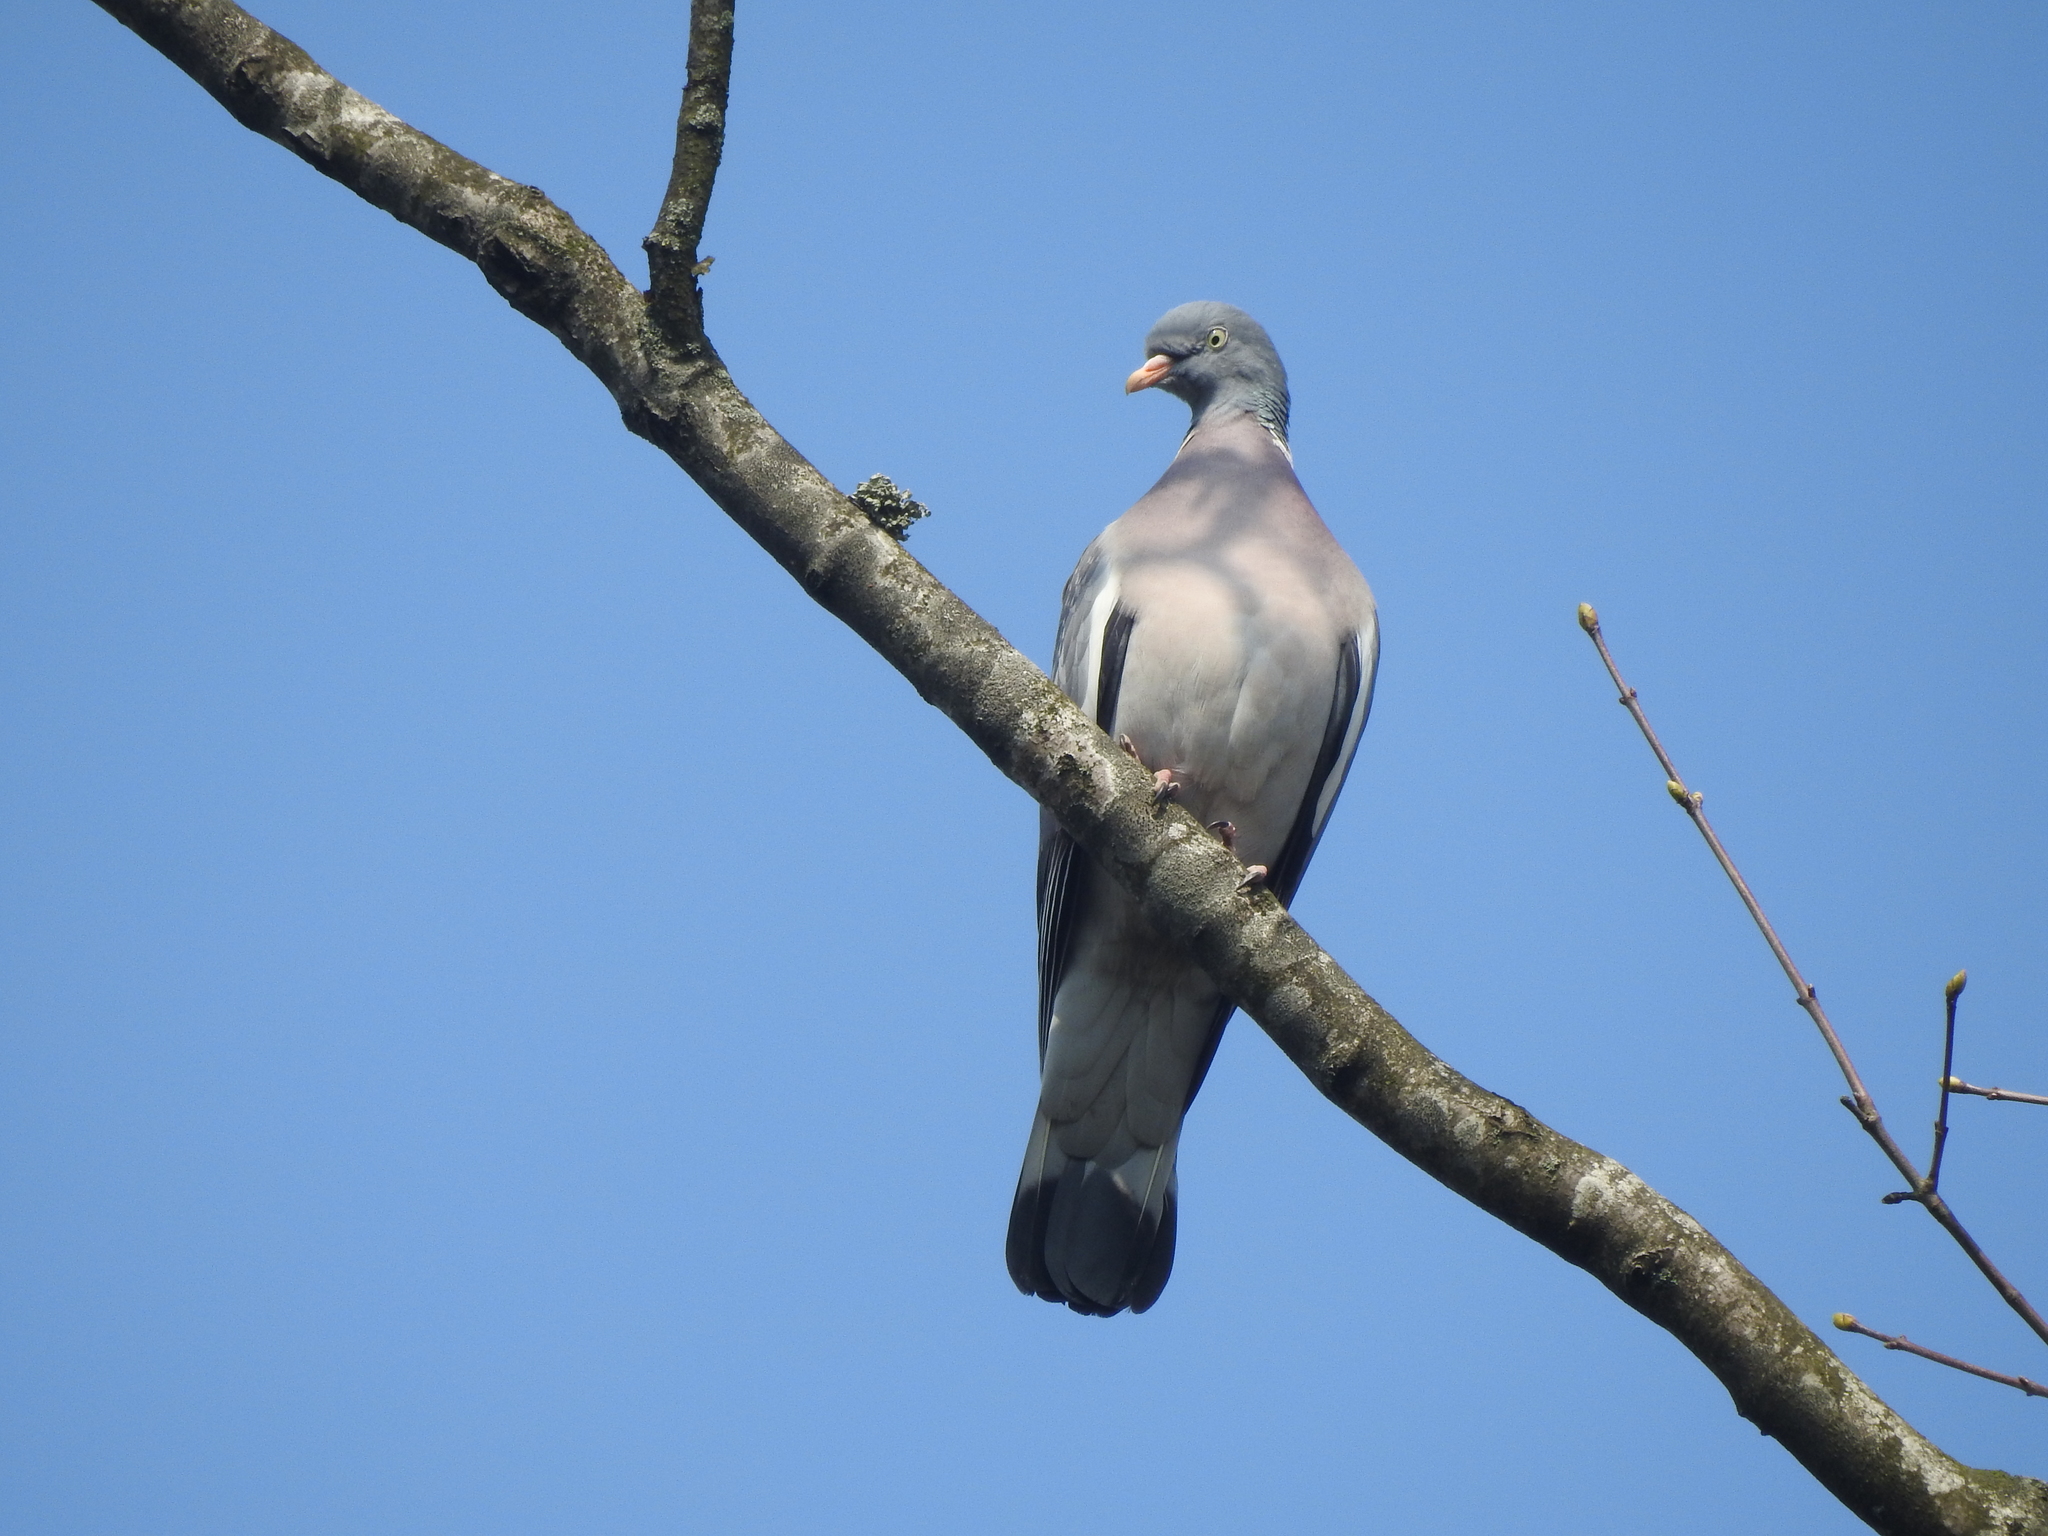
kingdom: Animalia
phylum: Chordata
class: Aves
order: Columbiformes
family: Columbidae
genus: Columba
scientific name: Columba palumbus
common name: Common wood pigeon
